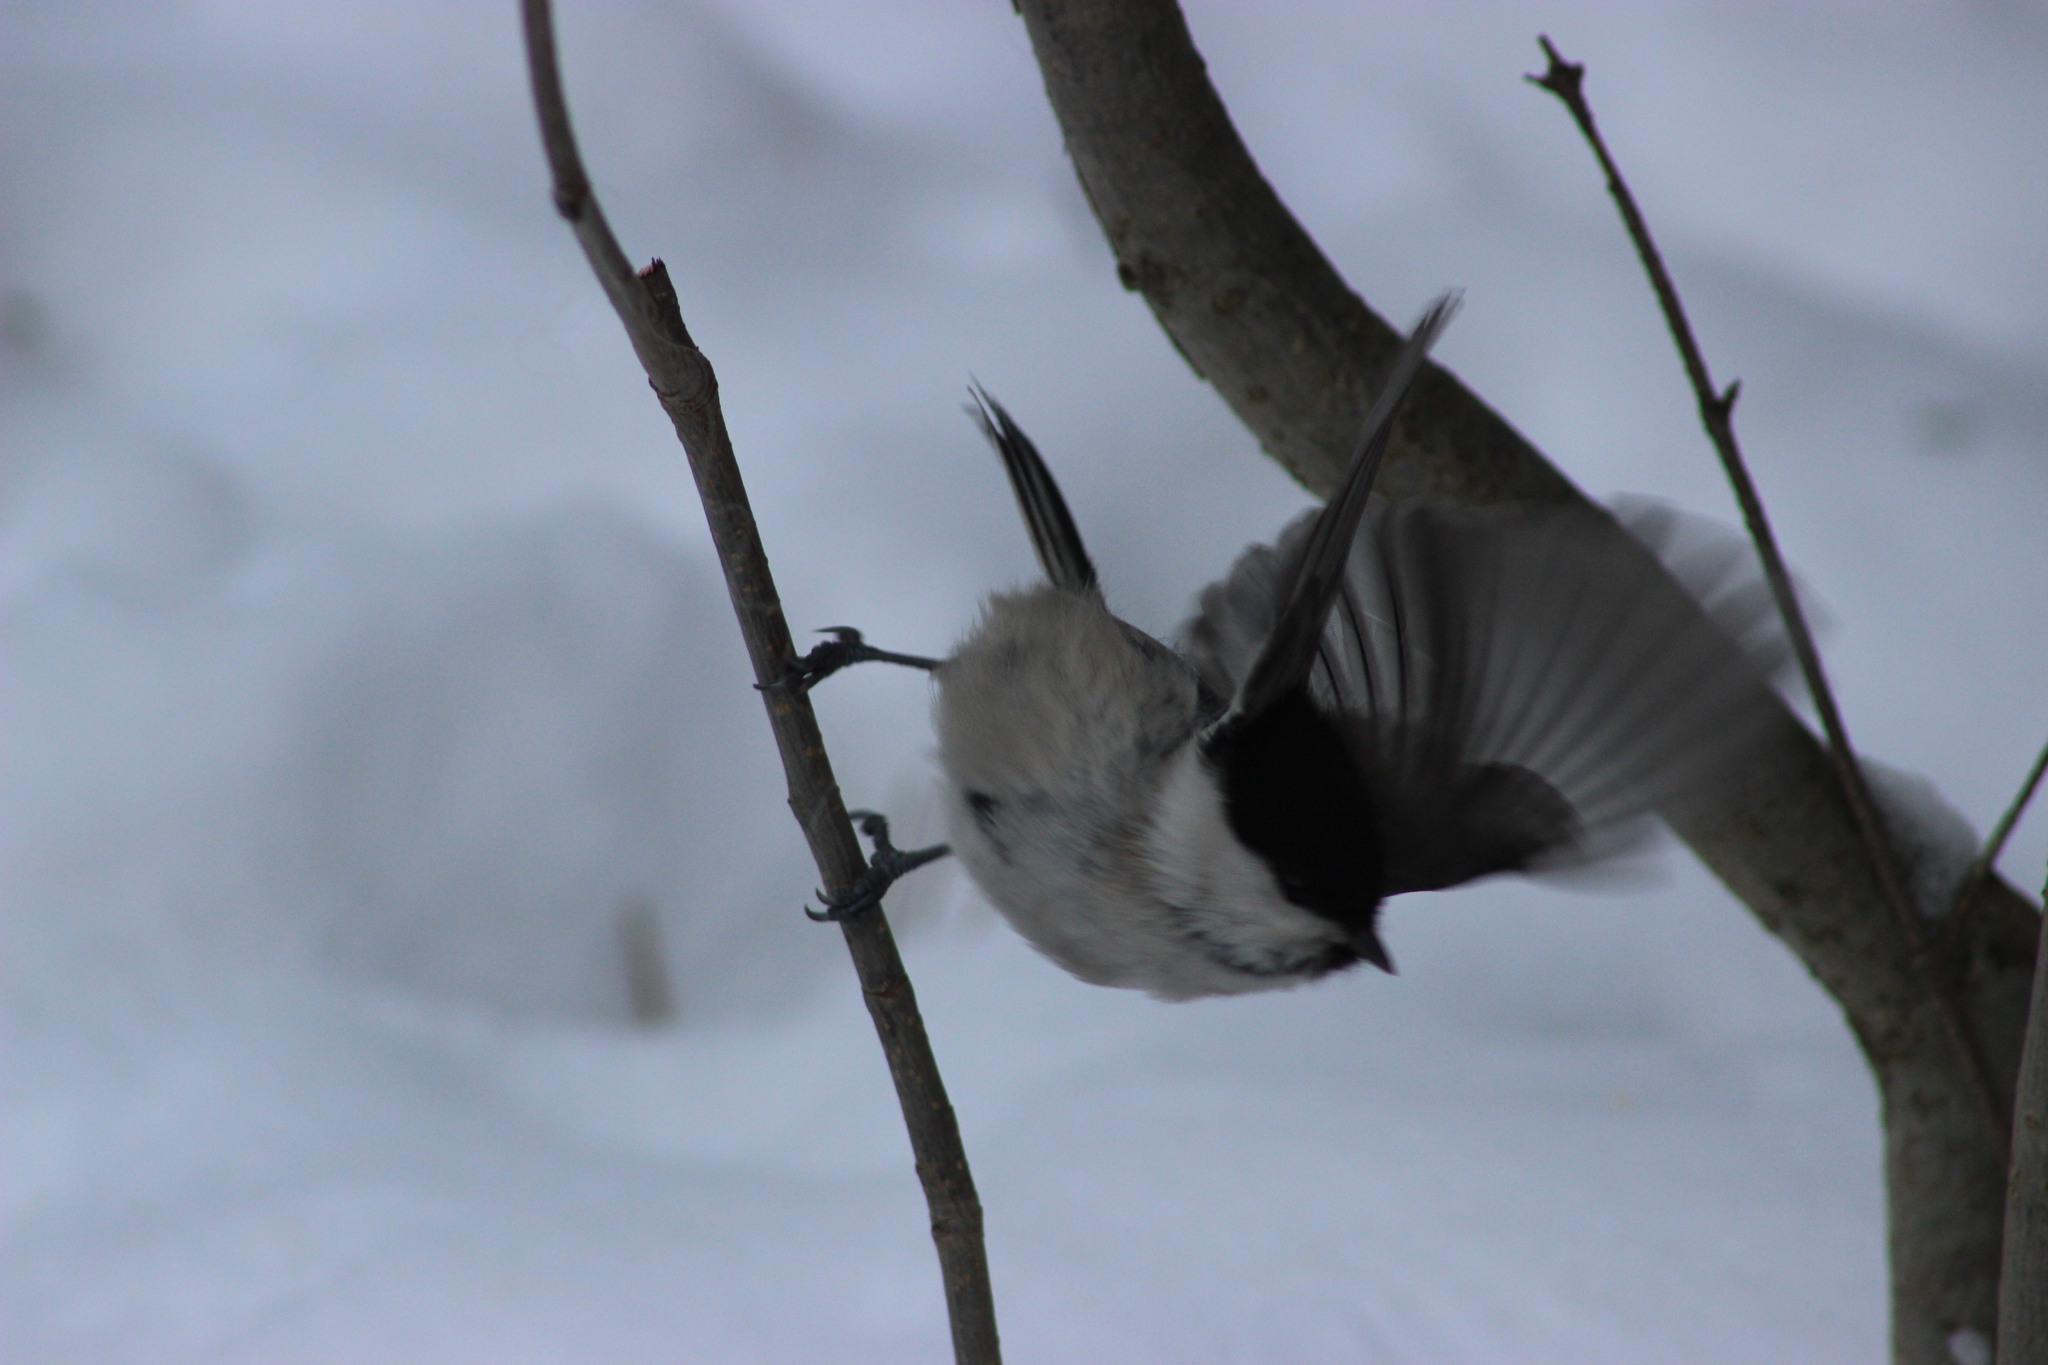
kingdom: Animalia
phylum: Chordata
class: Aves
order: Passeriformes
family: Paridae
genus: Poecile
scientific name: Poecile montanus
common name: Willow tit
